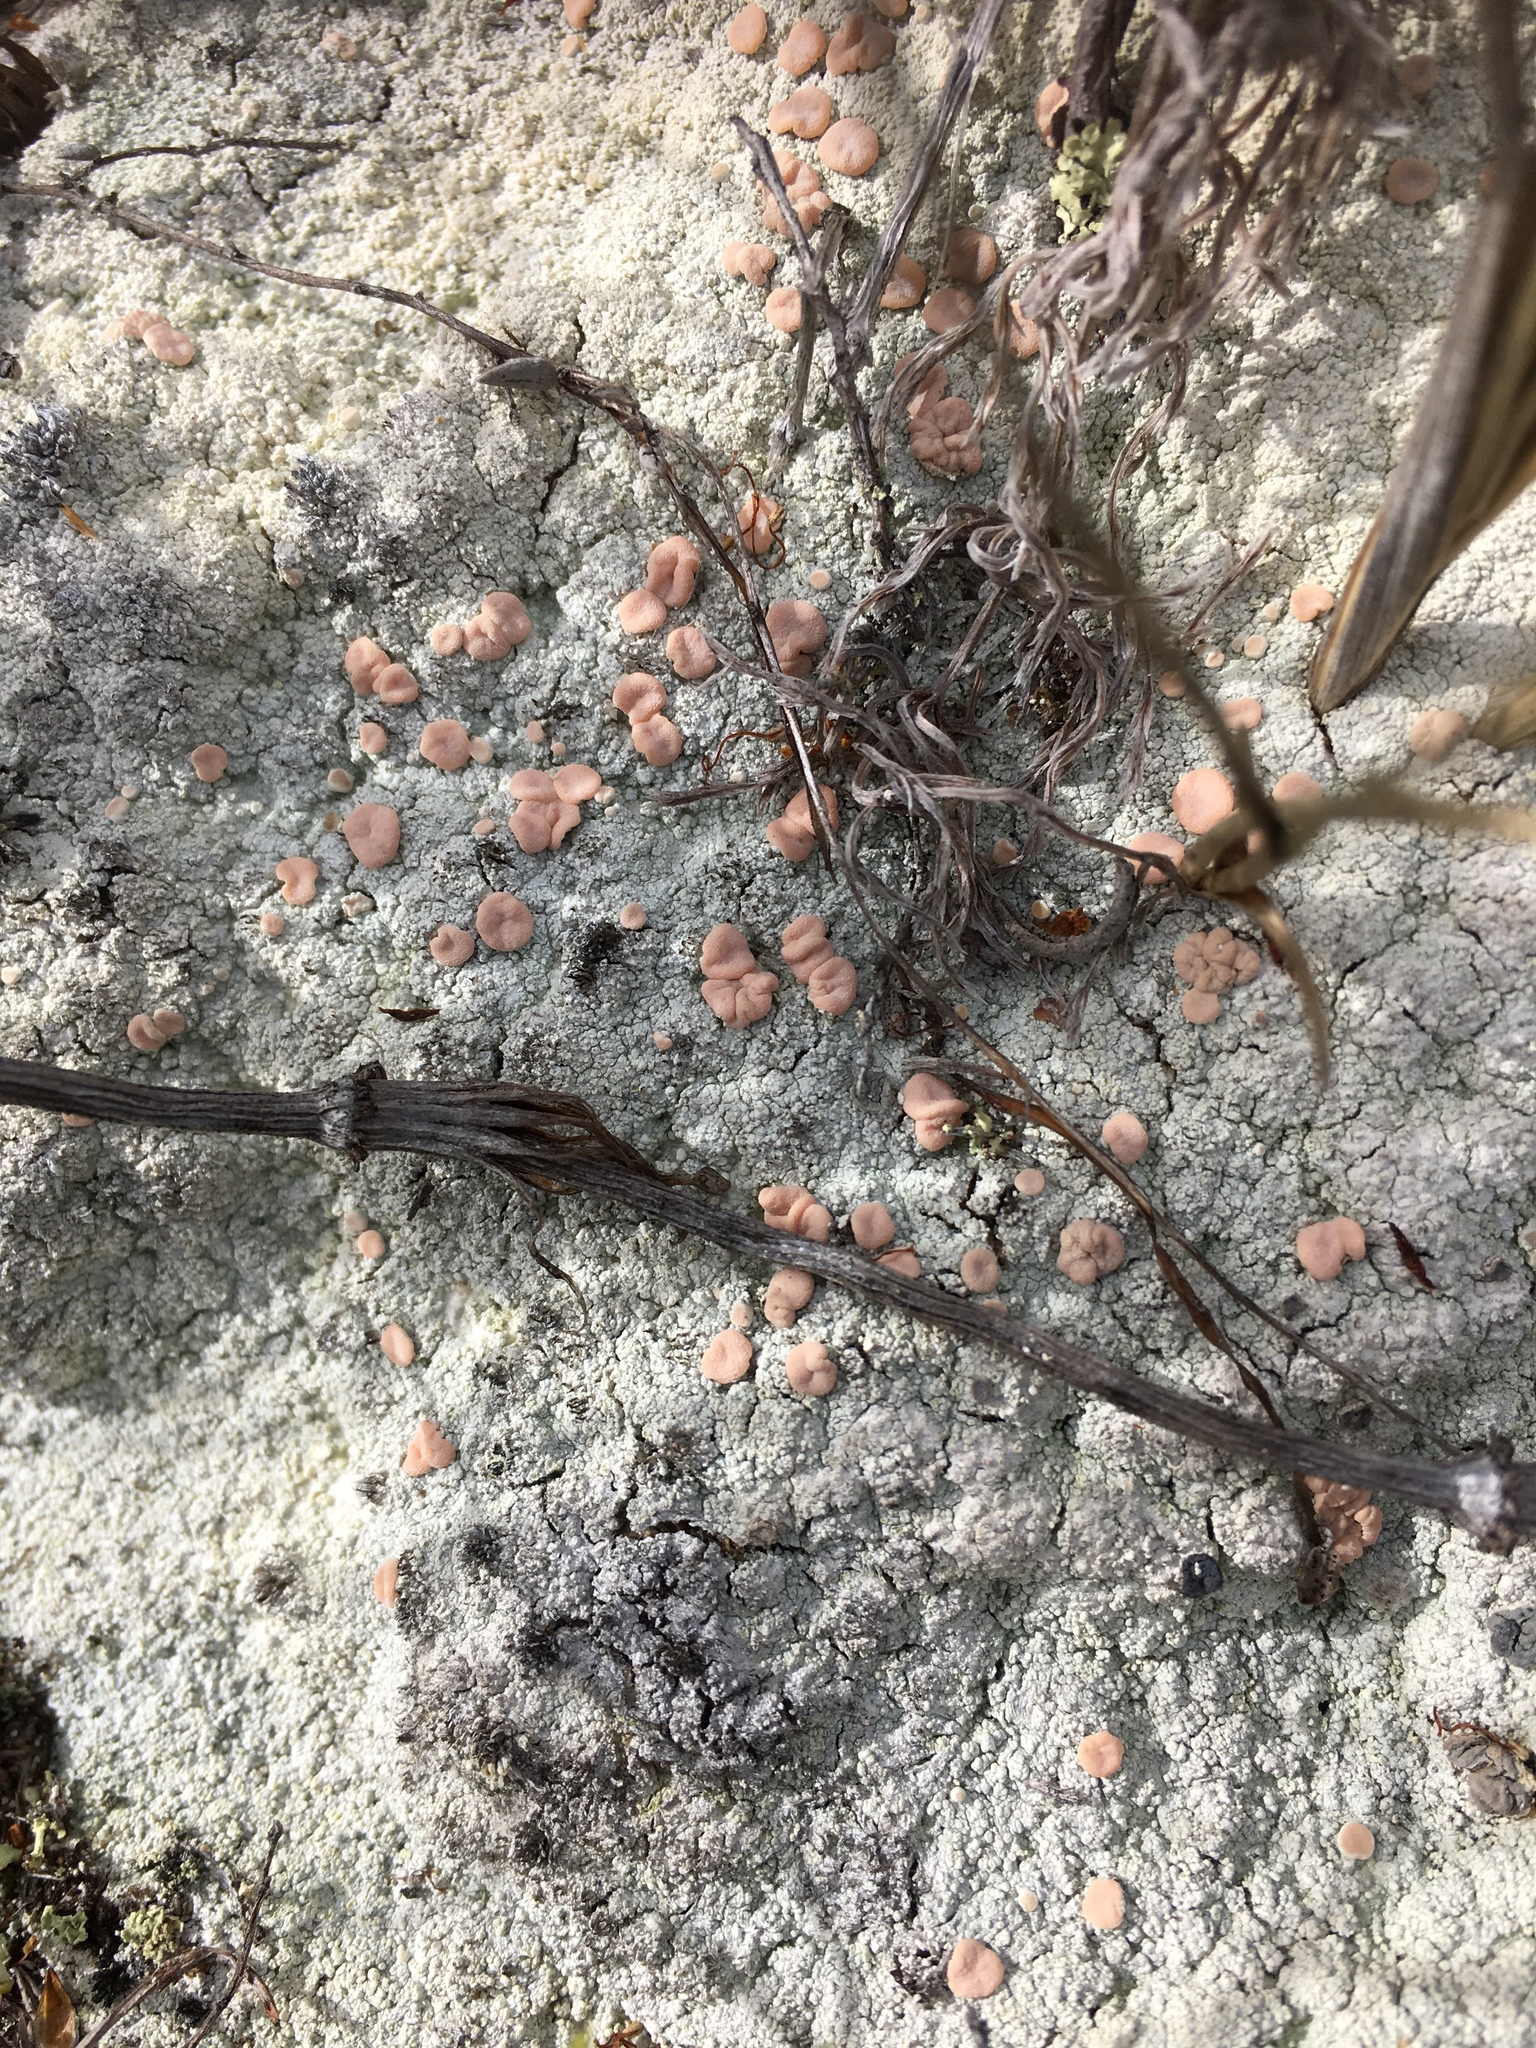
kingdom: Fungi
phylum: Ascomycota
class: Lecanoromycetes
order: Pertusariales
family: Icmadophilaceae
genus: Icmadophila
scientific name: Icmadophila ericetorum
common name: Candy lichen
